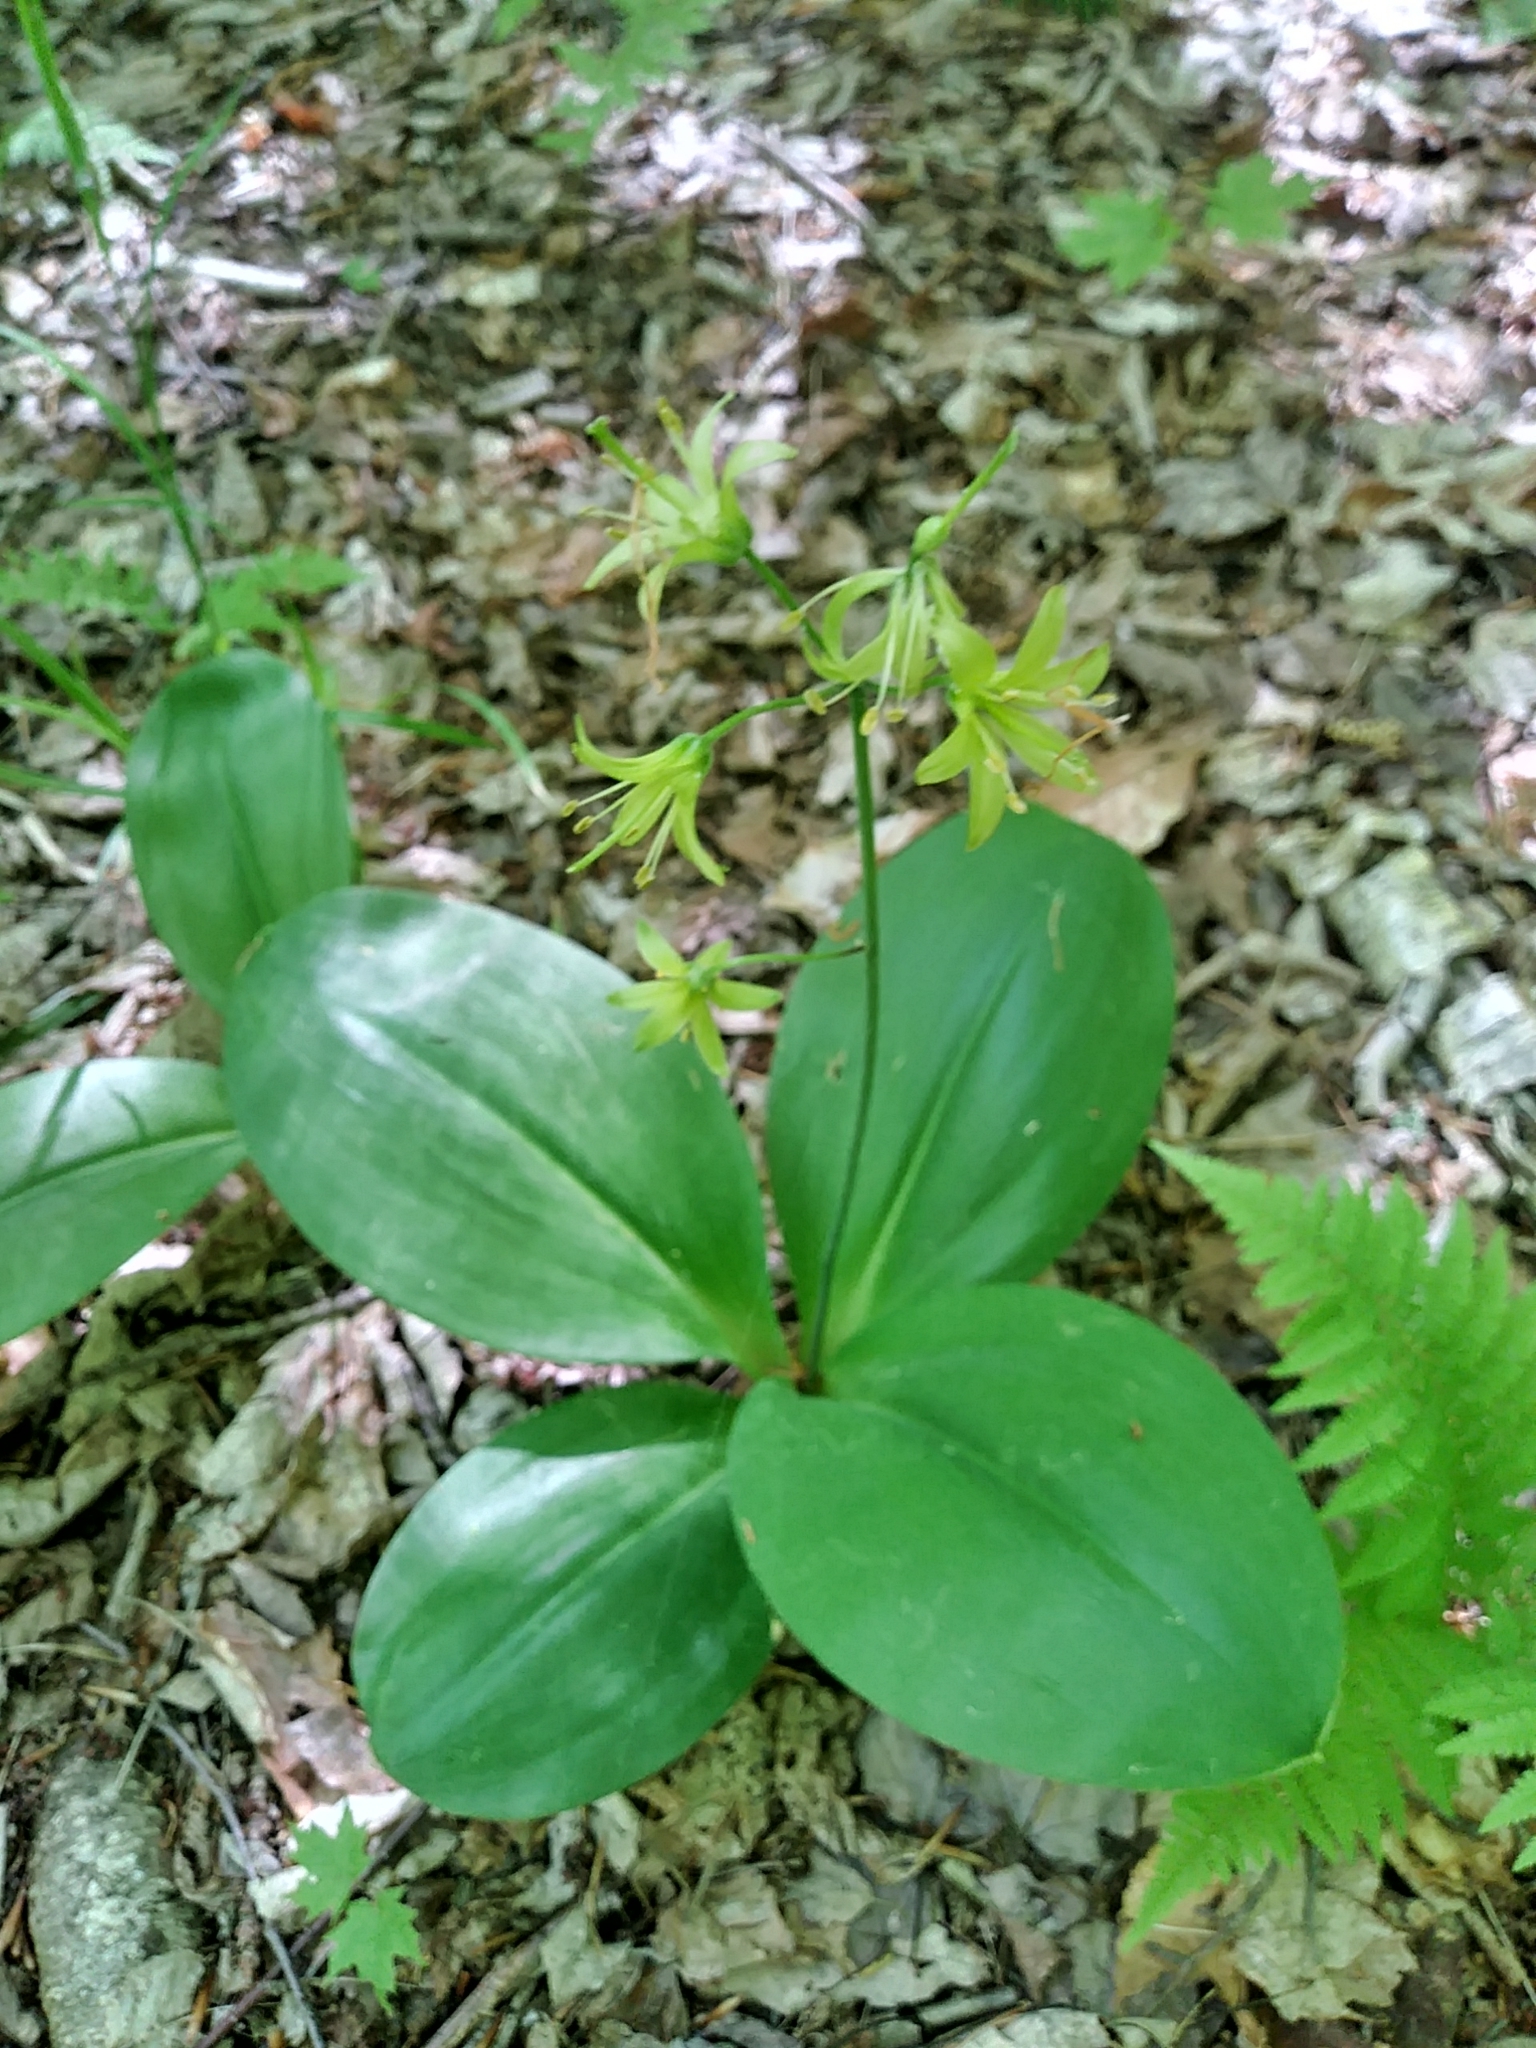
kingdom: Plantae
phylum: Tracheophyta
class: Liliopsida
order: Liliales
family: Liliaceae
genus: Clintonia
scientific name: Clintonia borealis
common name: Yellow clintonia
